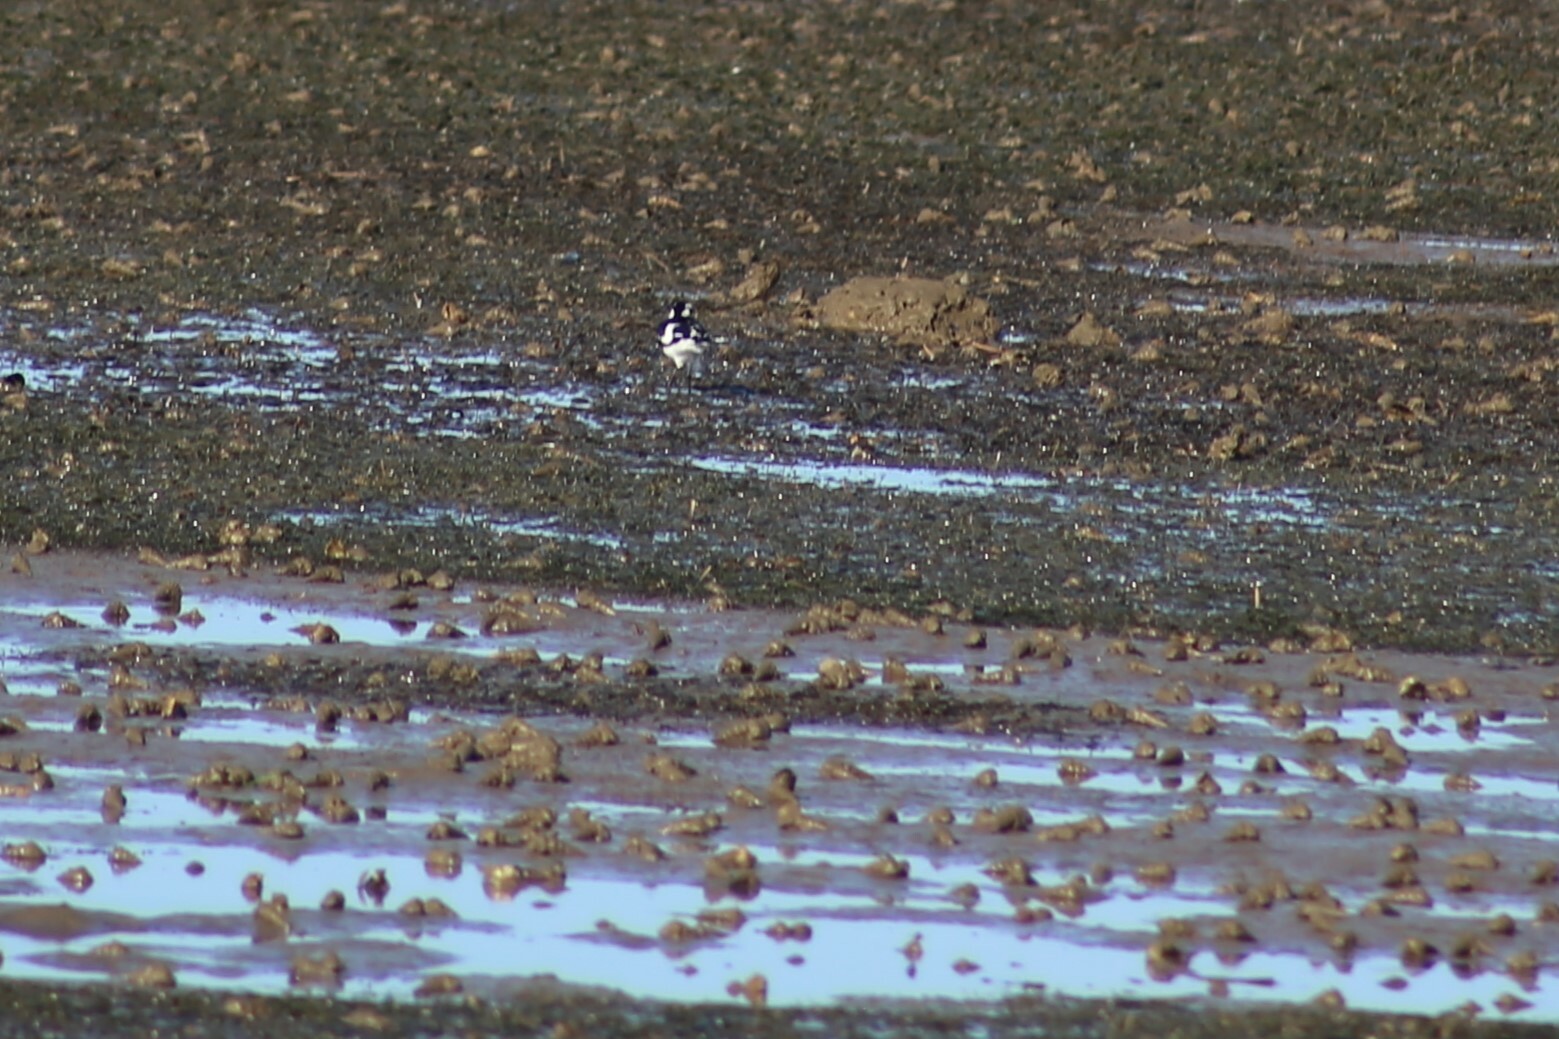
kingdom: Animalia
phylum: Chordata
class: Aves
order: Passeriformes
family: Monarchidae
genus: Grallina
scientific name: Grallina cyanoleuca
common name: Magpie-lark
